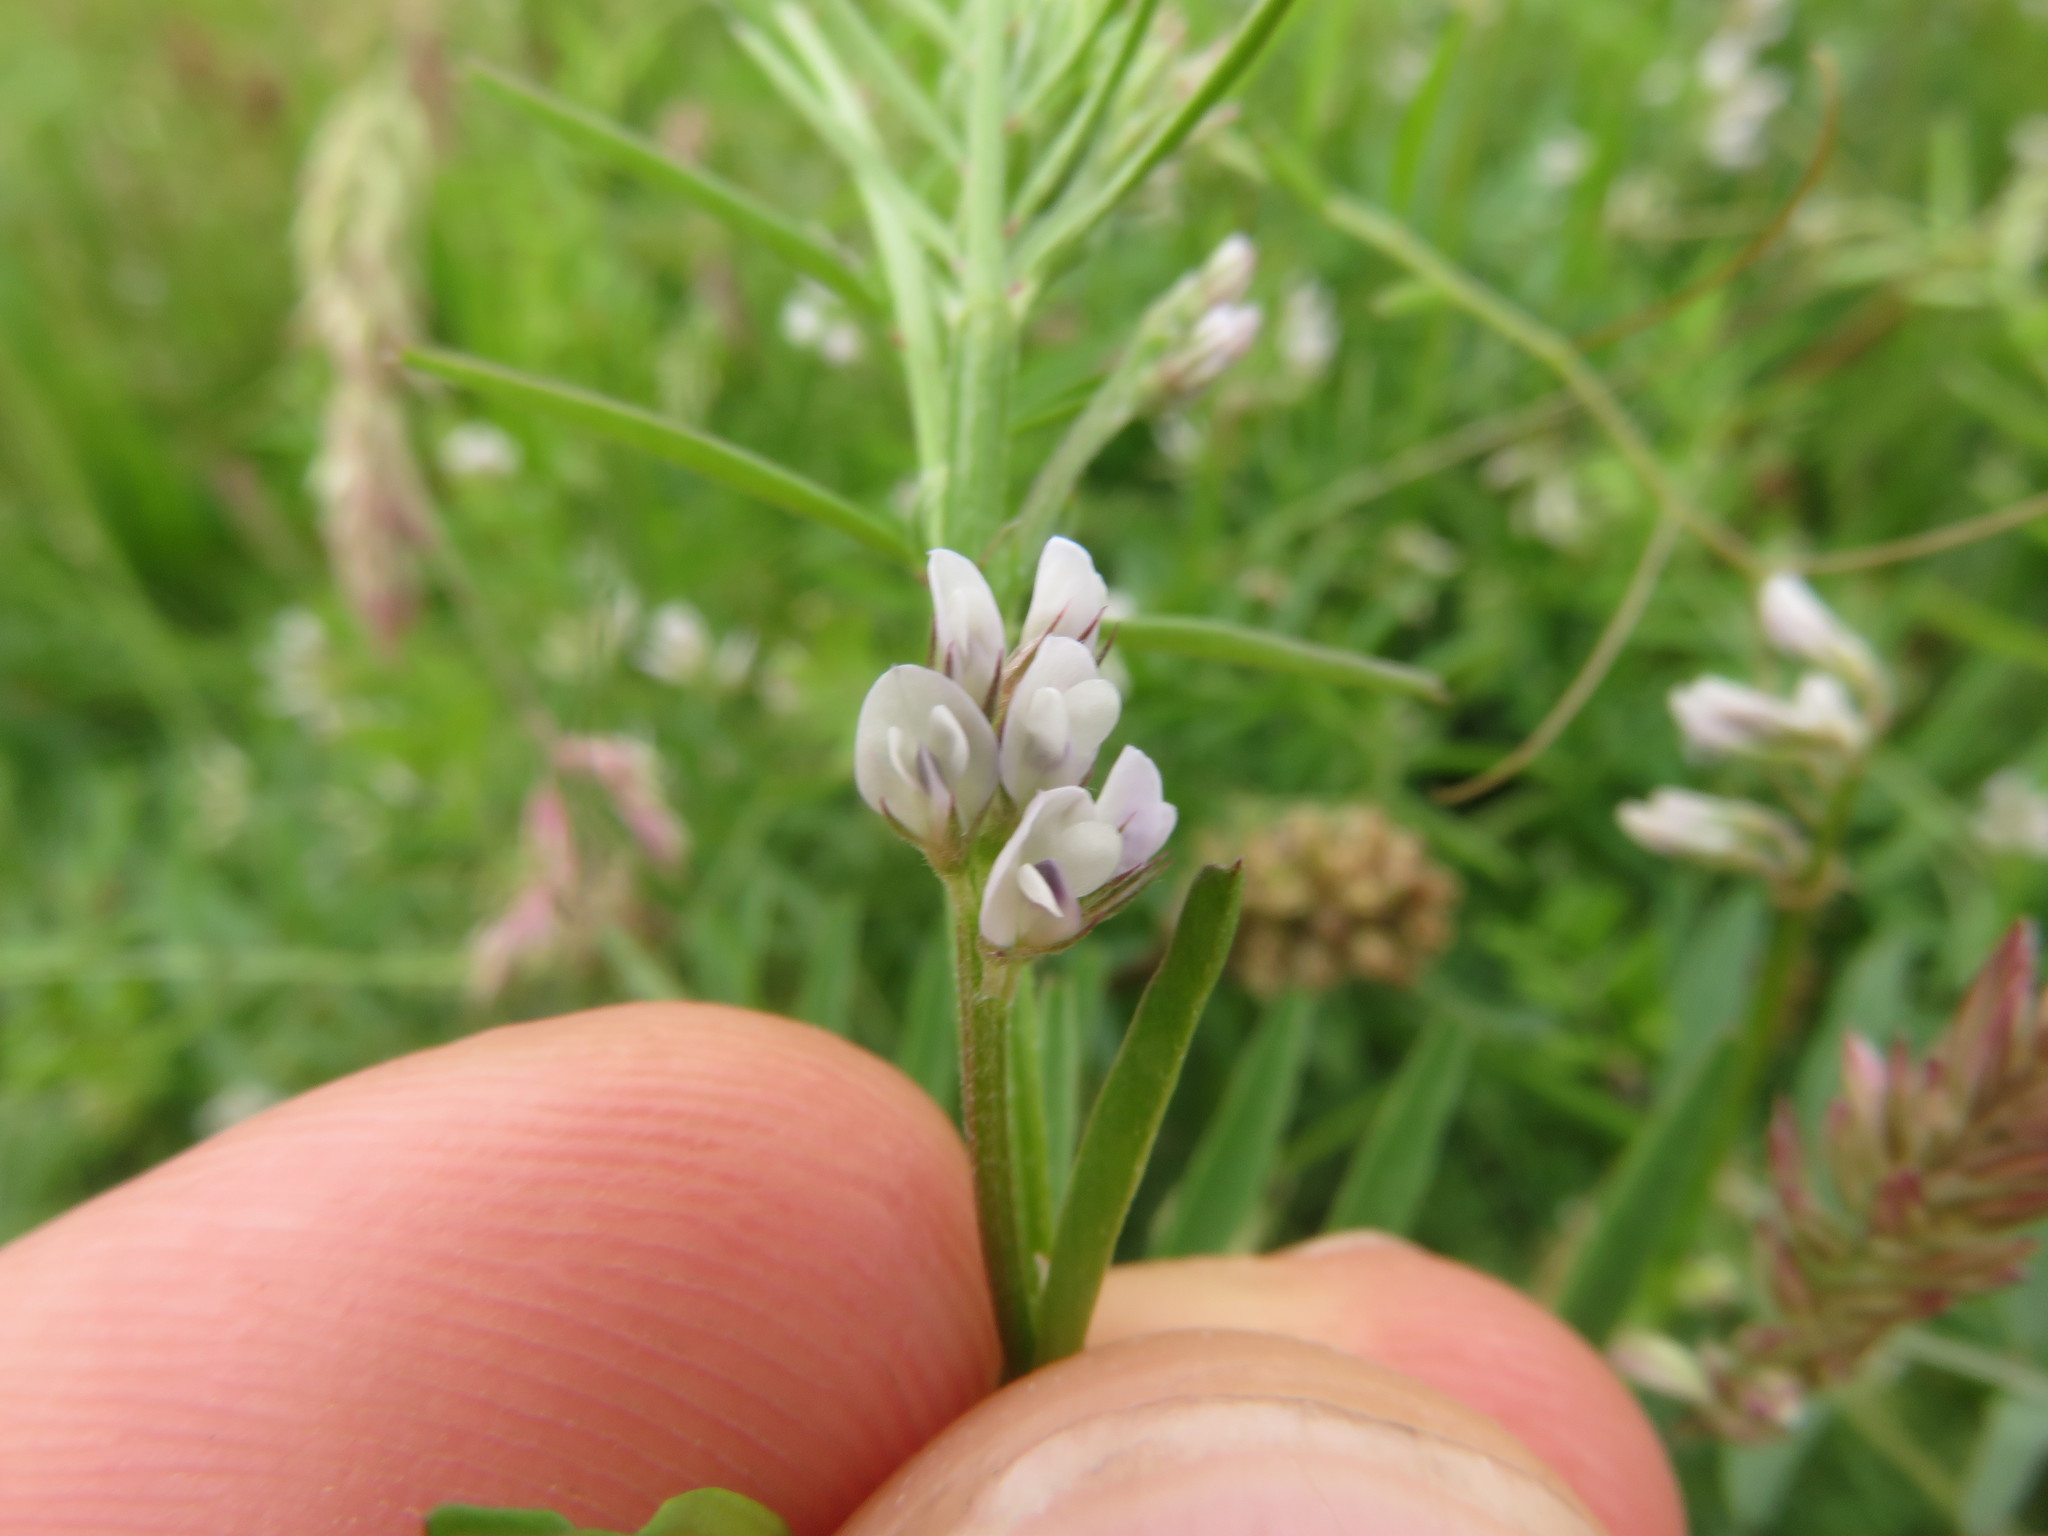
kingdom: Plantae
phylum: Tracheophyta
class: Magnoliopsida
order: Fabales
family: Fabaceae
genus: Vicia
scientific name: Vicia hirsuta
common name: Tiny vetch
